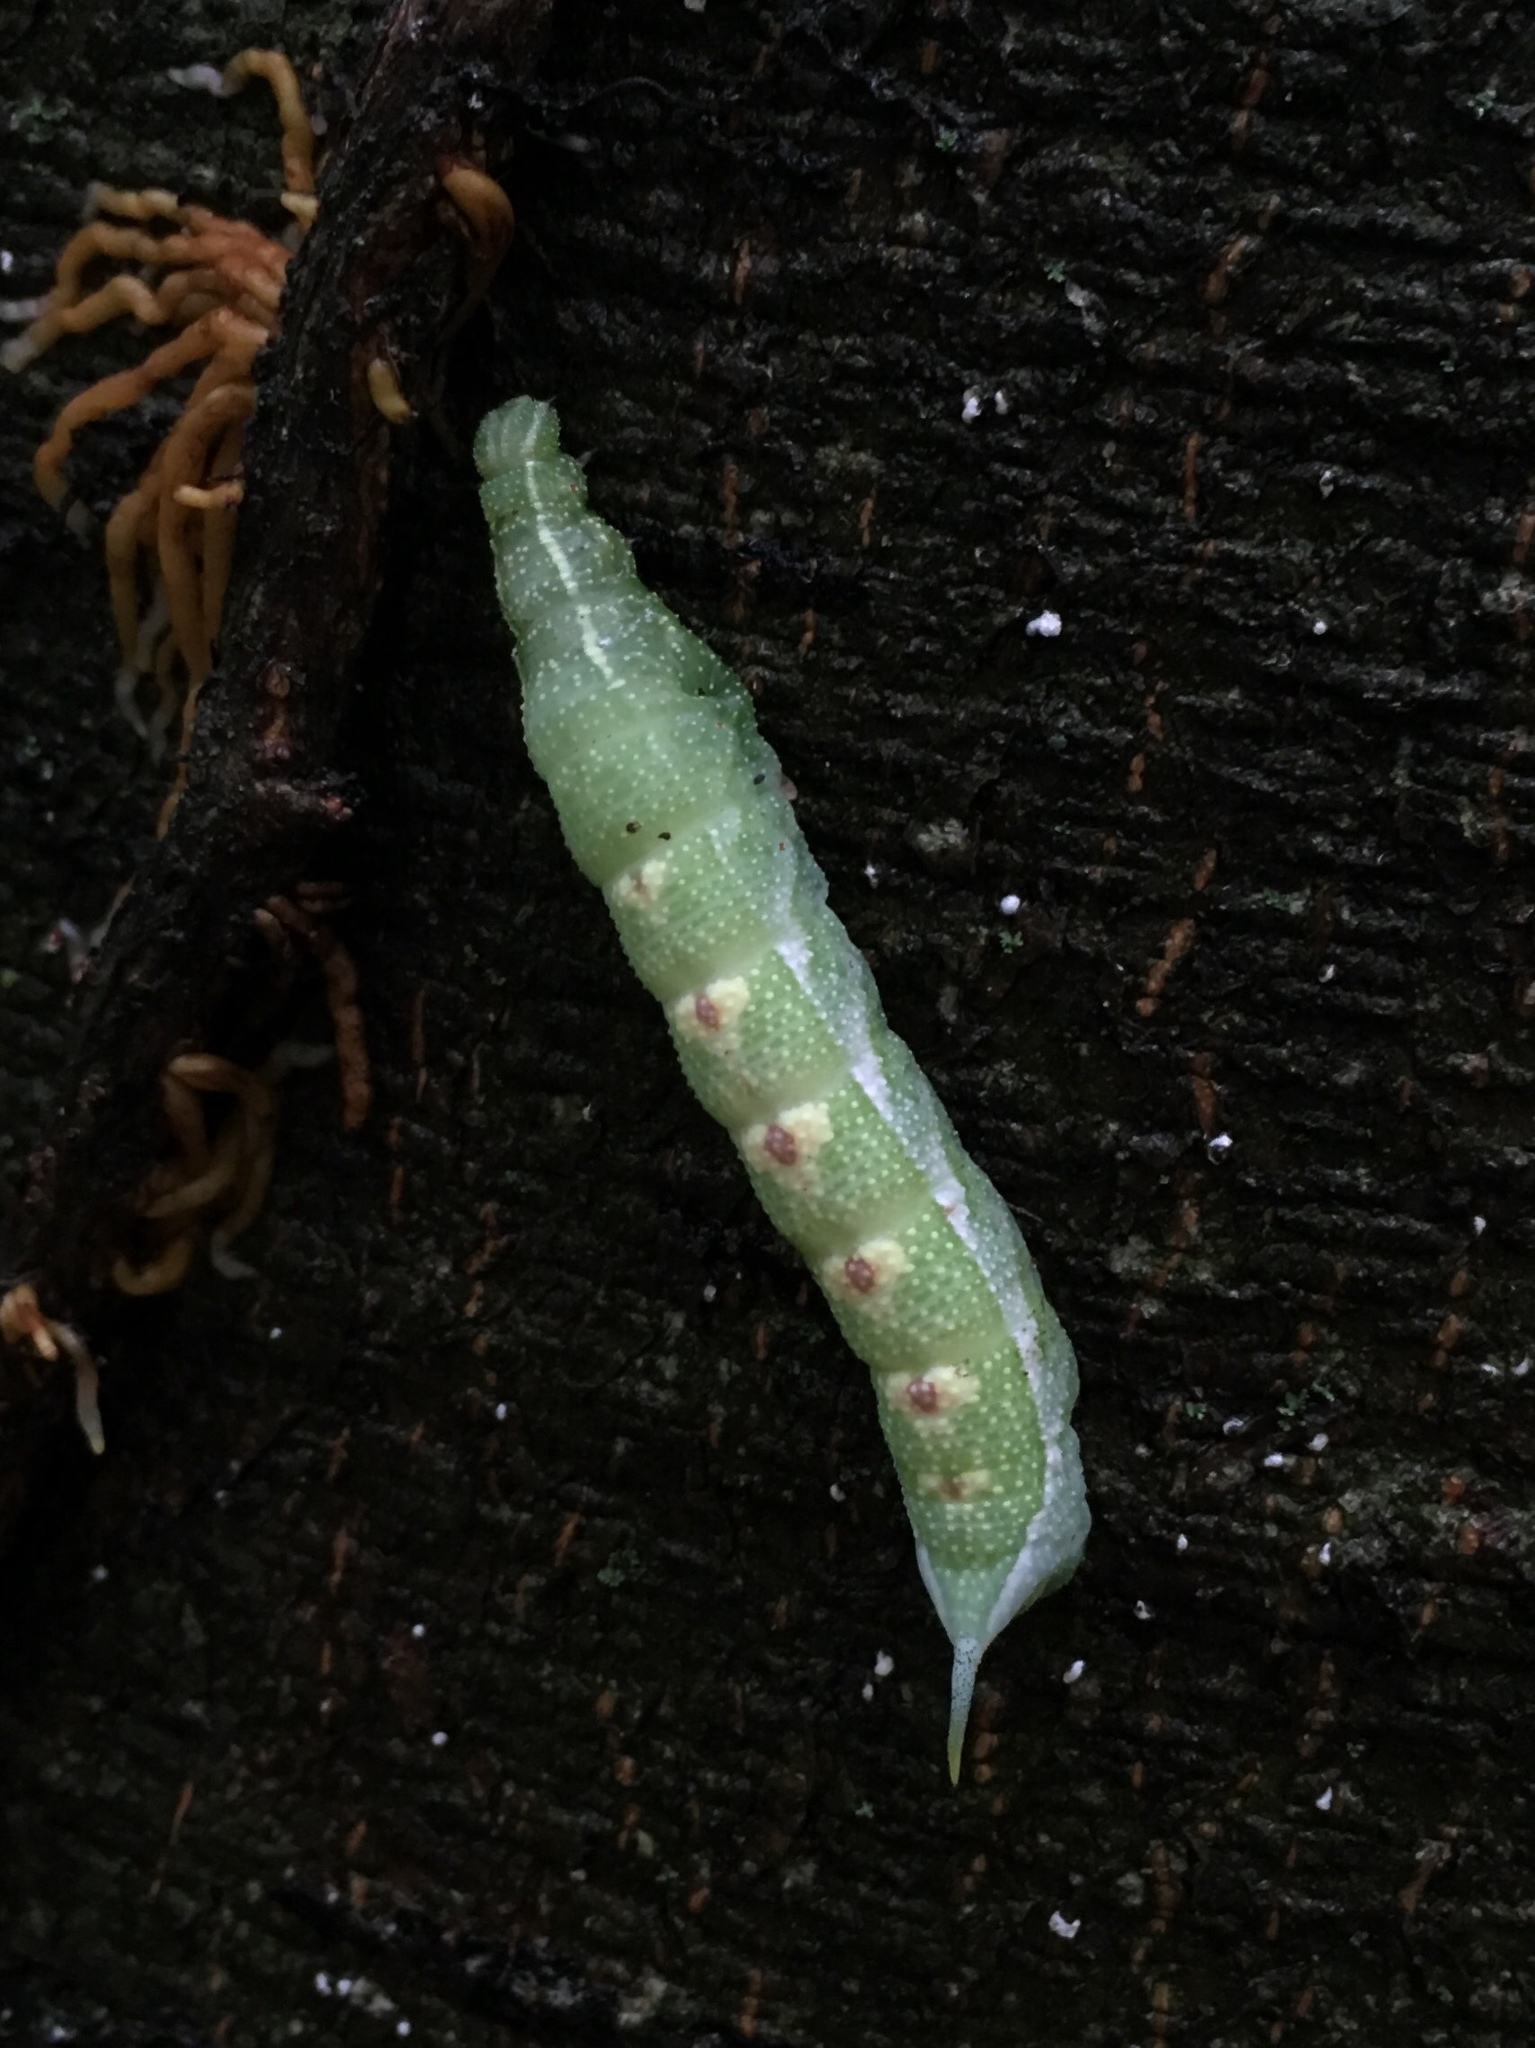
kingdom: Animalia
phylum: Arthropoda
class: Insecta
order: Lepidoptera
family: Sphingidae
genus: Darapsa
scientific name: Darapsa myron
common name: Hog sphinx
